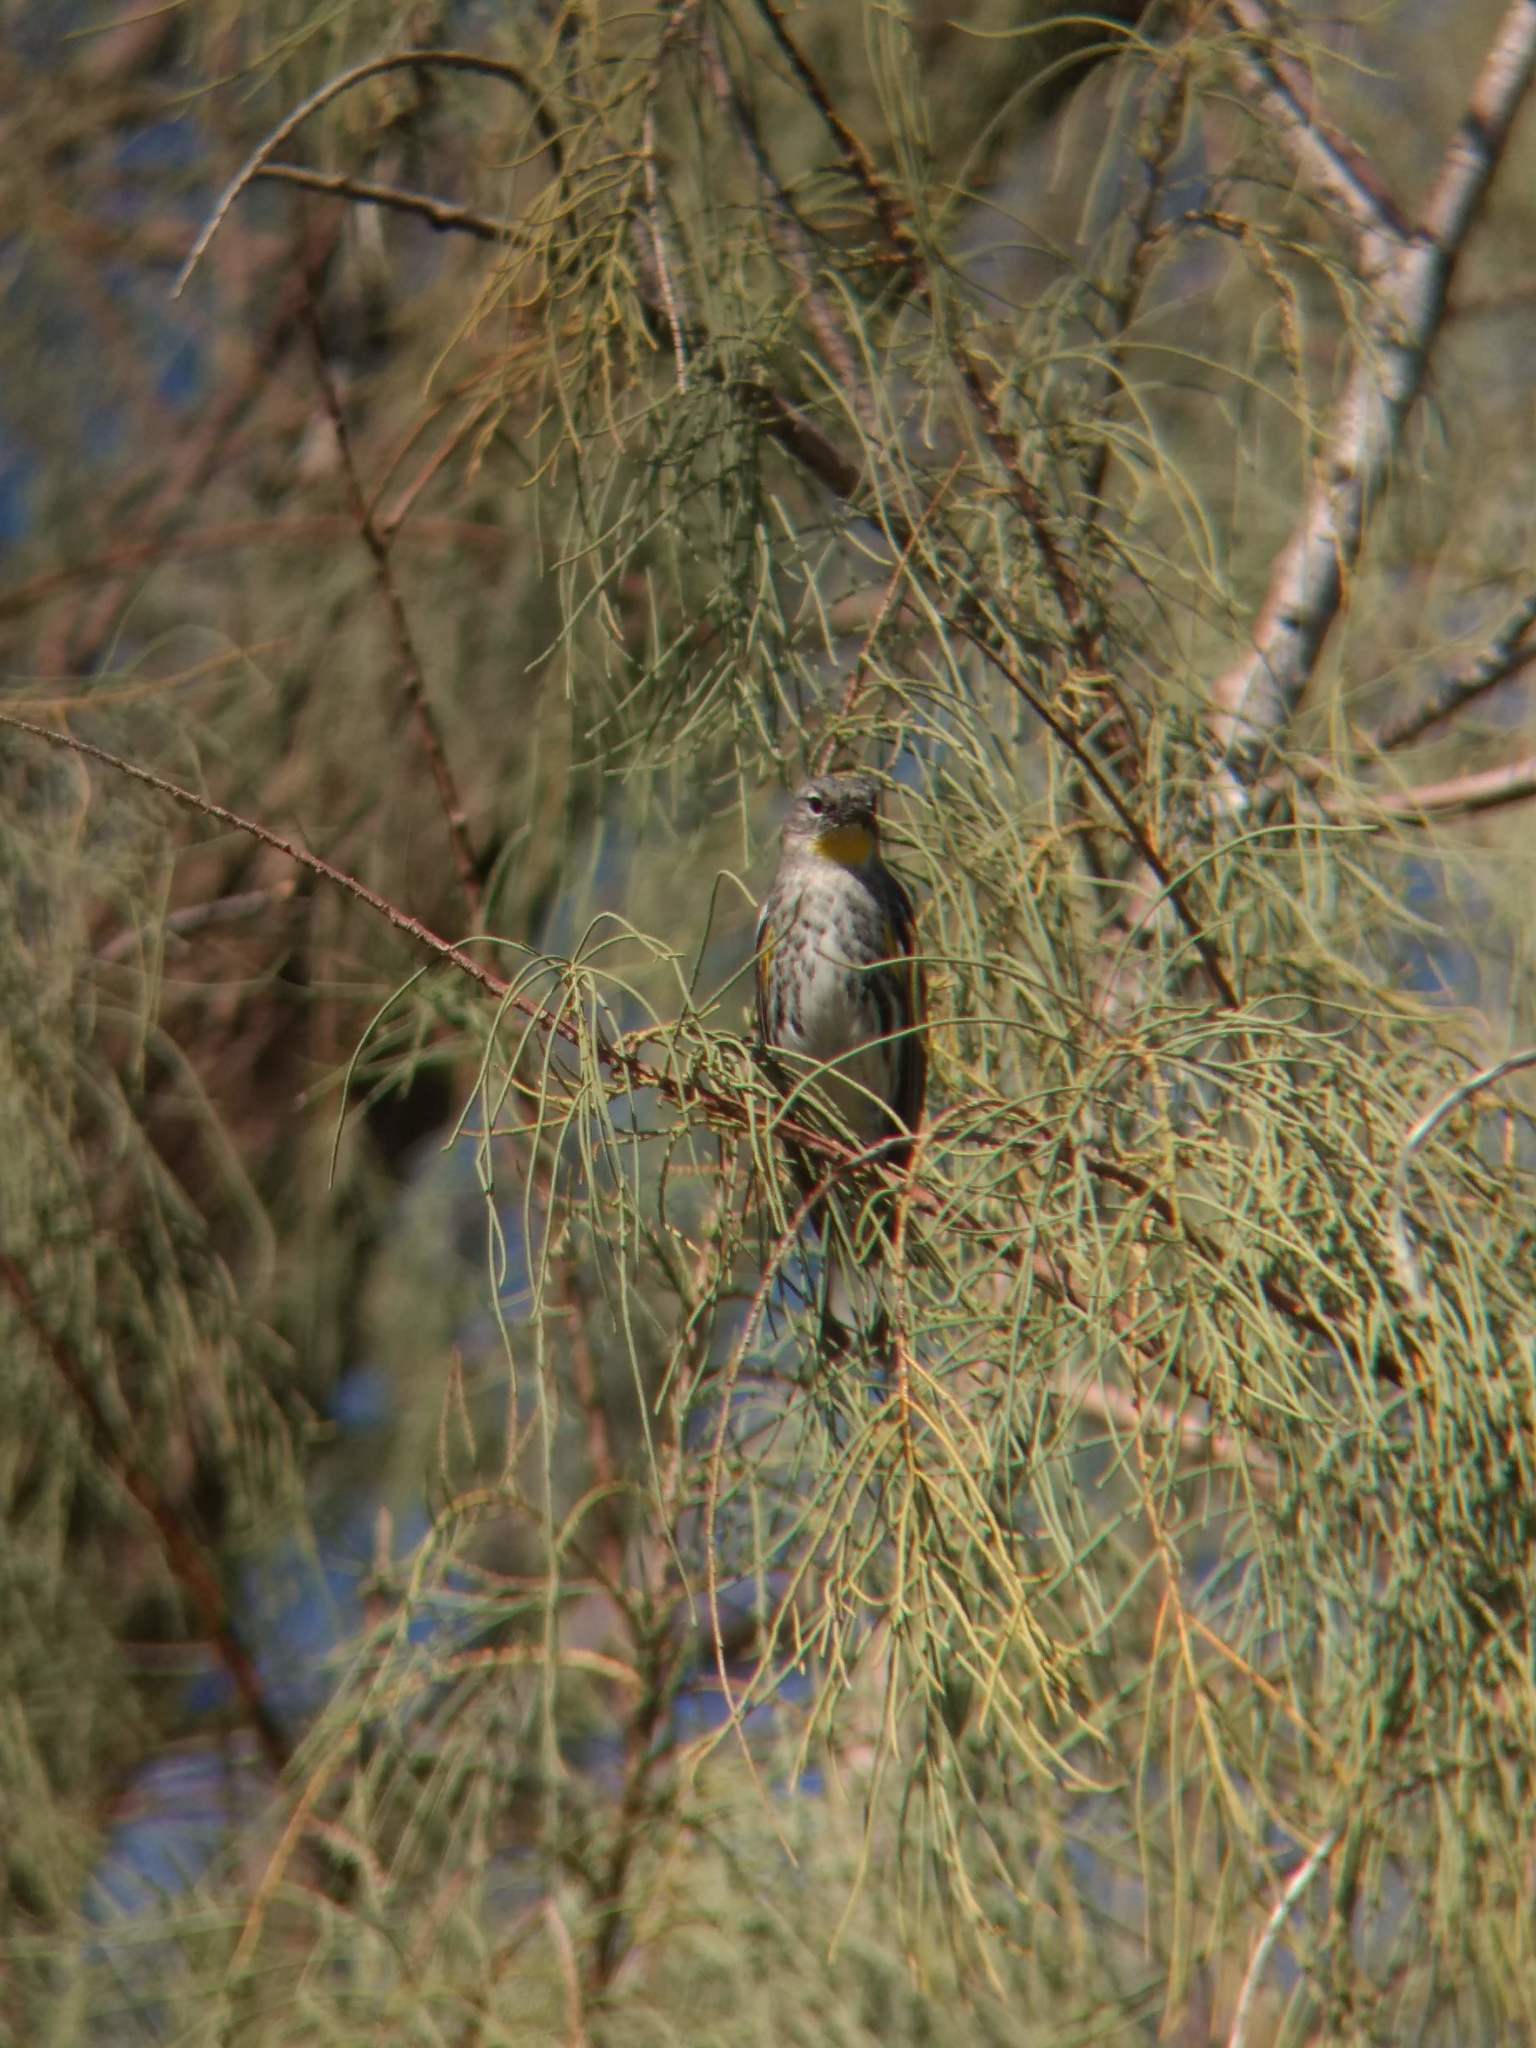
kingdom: Animalia
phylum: Chordata
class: Aves
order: Passeriformes
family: Parulidae
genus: Setophaga
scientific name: Setophaga coronata
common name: Myrtle warbler
